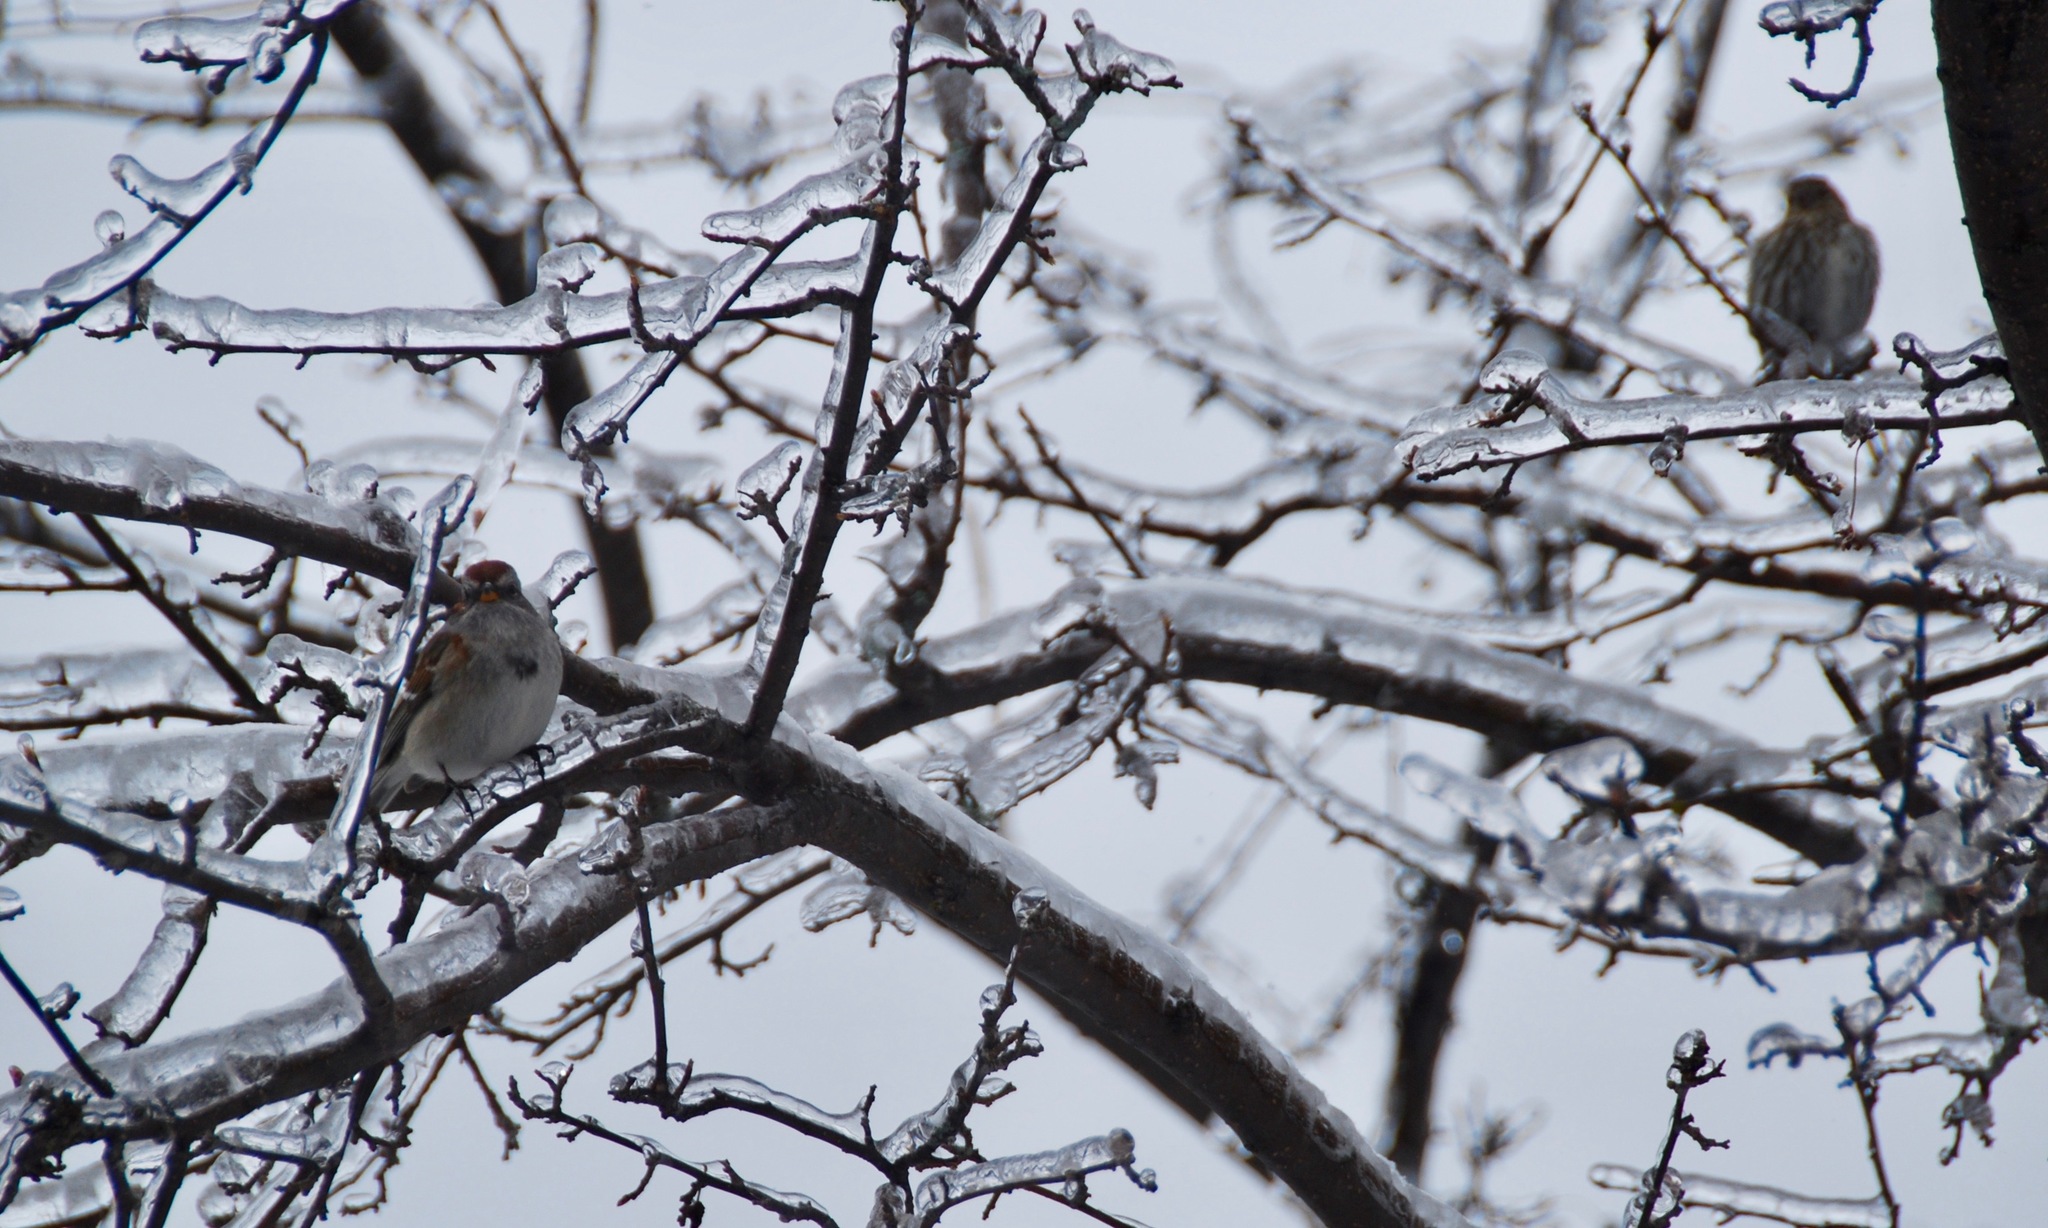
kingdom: Animalia
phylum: Chordata
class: Aves
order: Passeriformes
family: Passerellidae
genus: Spizelloides
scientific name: Spizelloides arborea
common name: American tree sparrow
